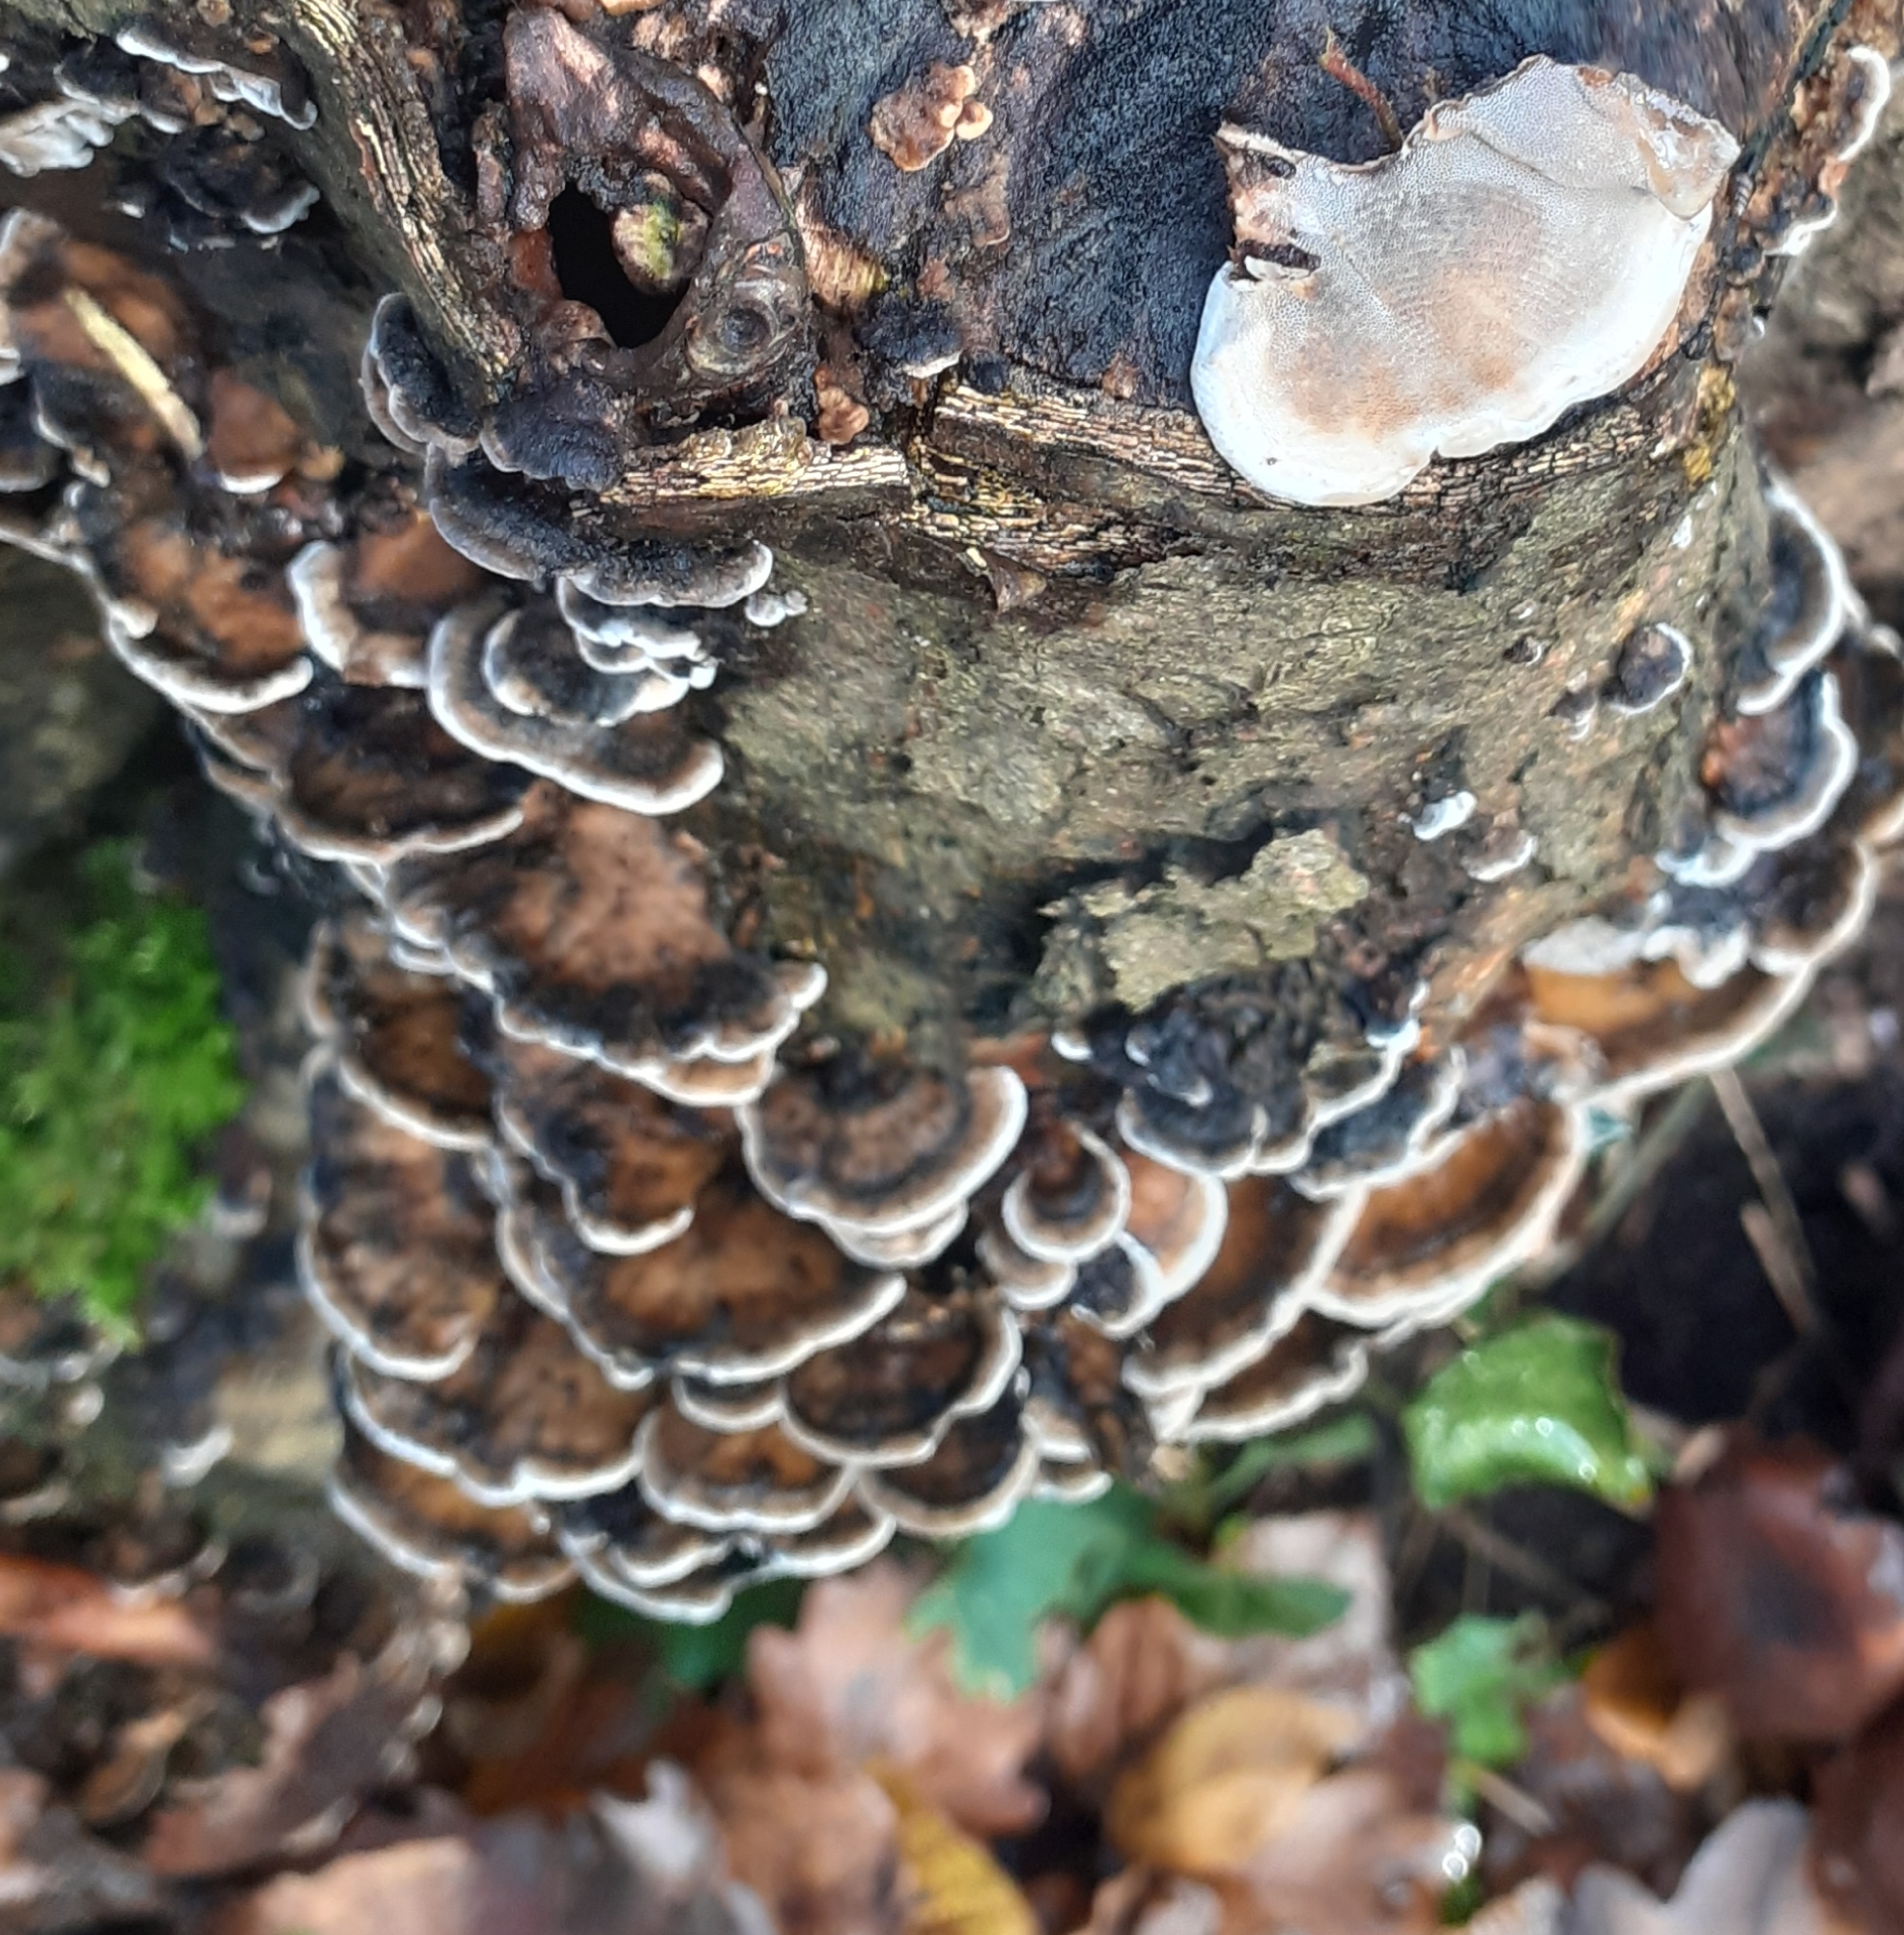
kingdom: Fungi
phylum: Basidiomycota
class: Agaricomycetes
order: Polyporales
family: Phanerochaetaceae
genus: Bjerkandera
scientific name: Bjerkandera adusta
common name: Smoky bracket
